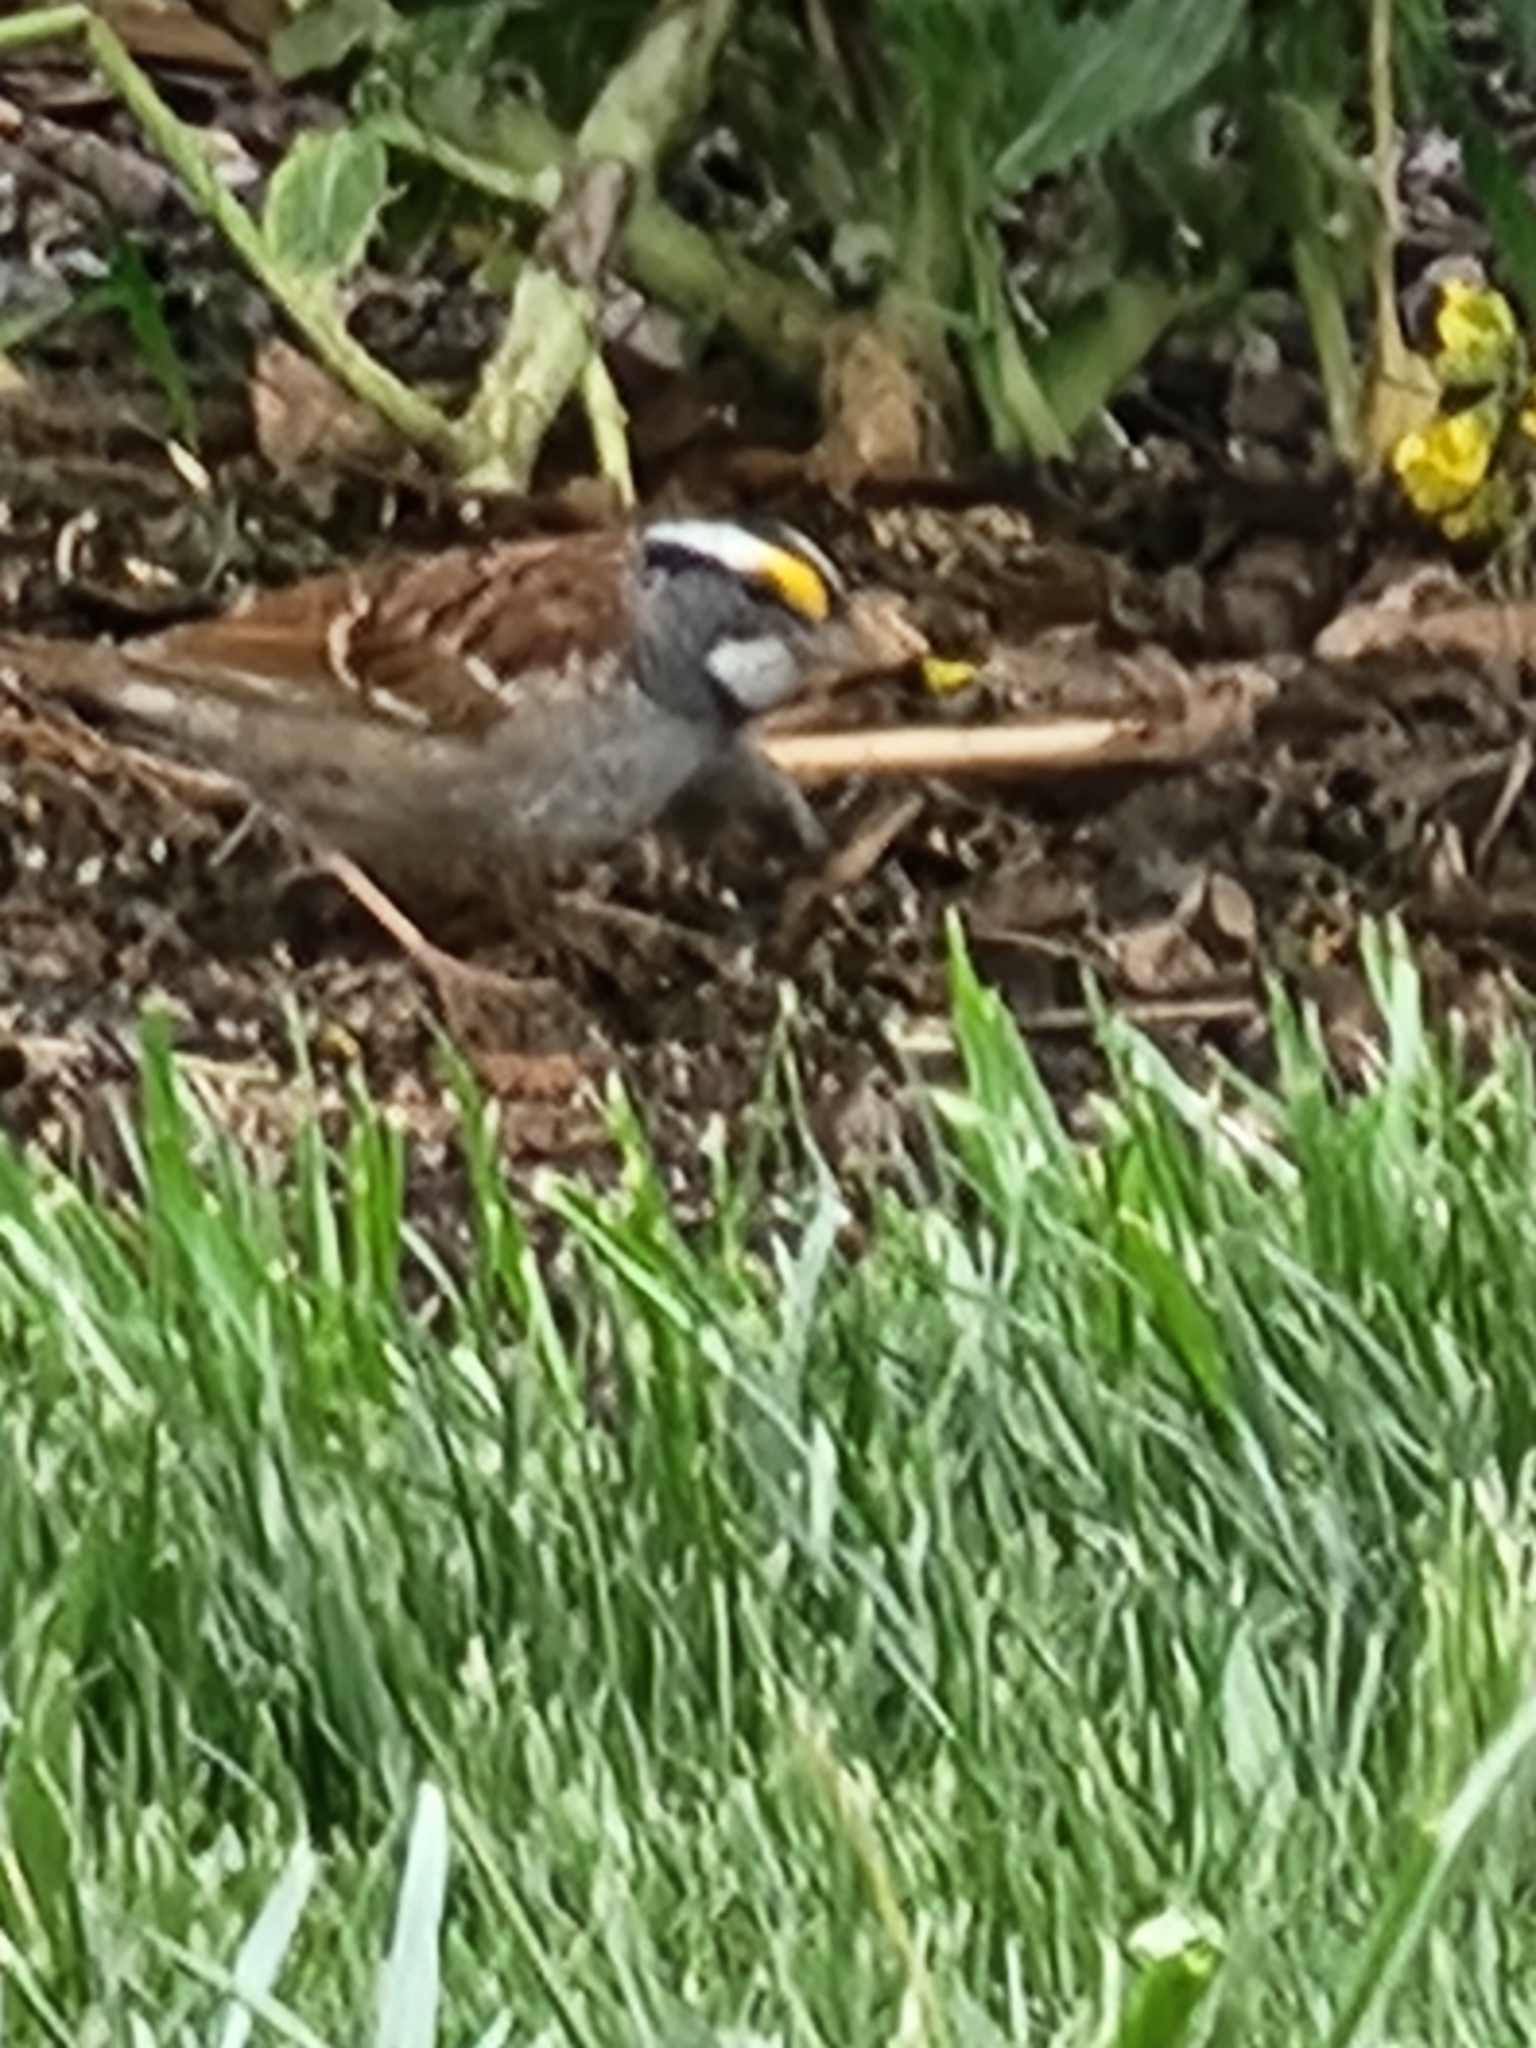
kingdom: Animalia
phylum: Chordata
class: Aves
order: Passeriformes
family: Passerellidae
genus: Zonotrichia
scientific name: Zonotrichia albicollis
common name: White-throated sparrow
